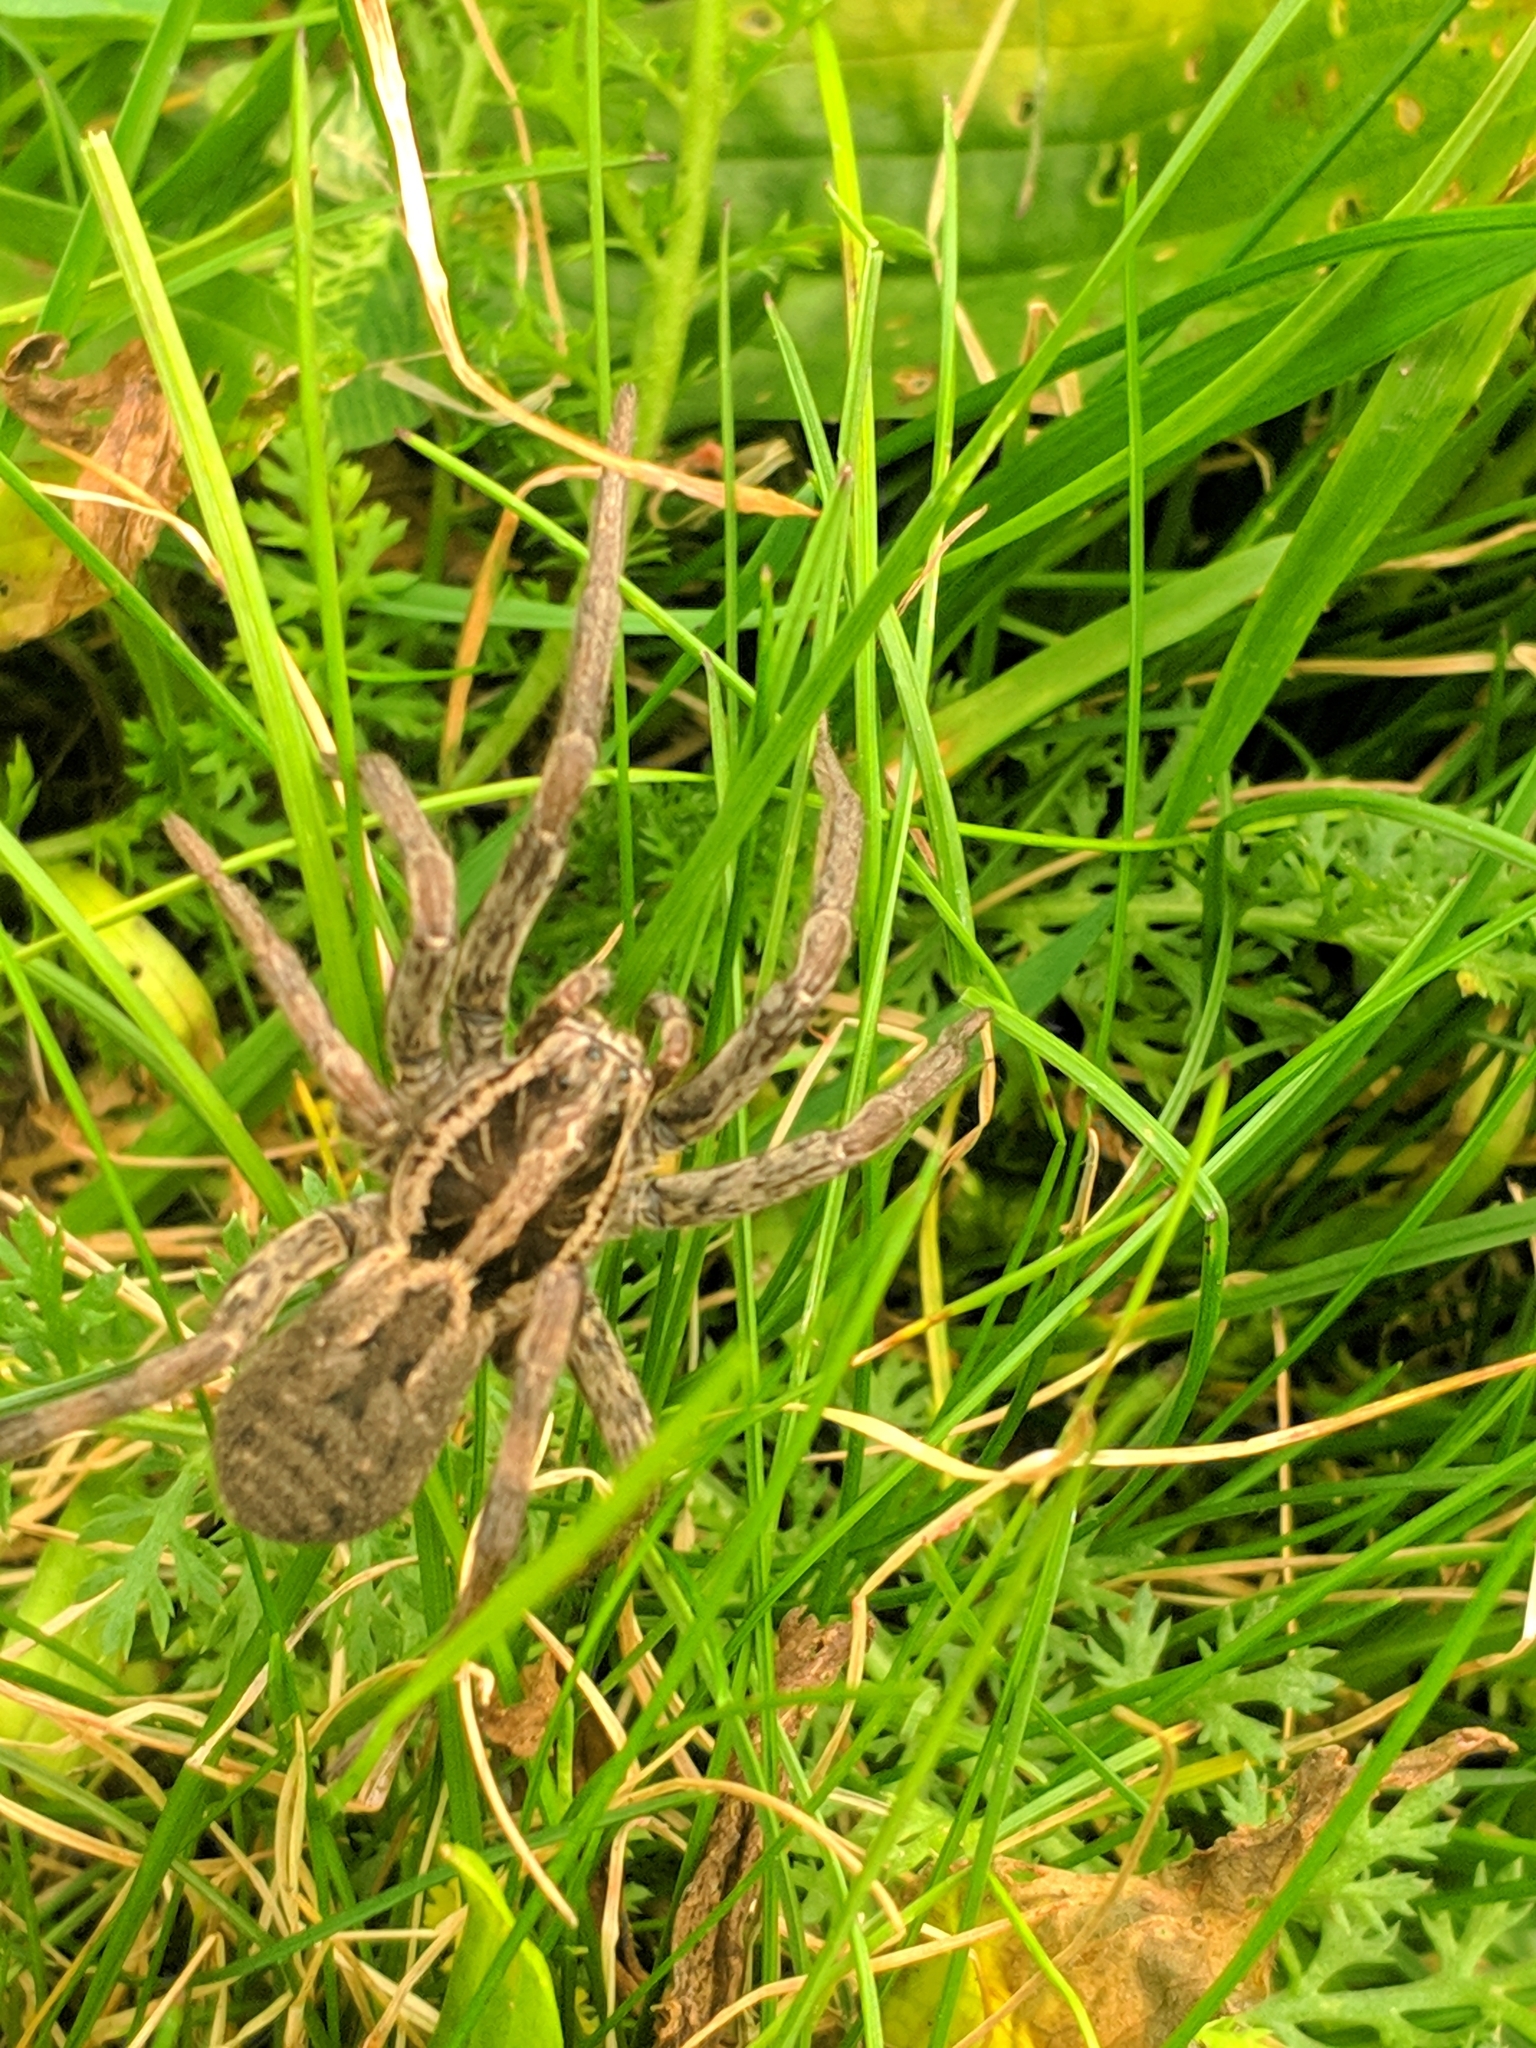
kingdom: Animalia
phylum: Arthropoda
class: Arachnida
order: Araneae
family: Lycosidae
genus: Hogna
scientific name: Hogna radiata
